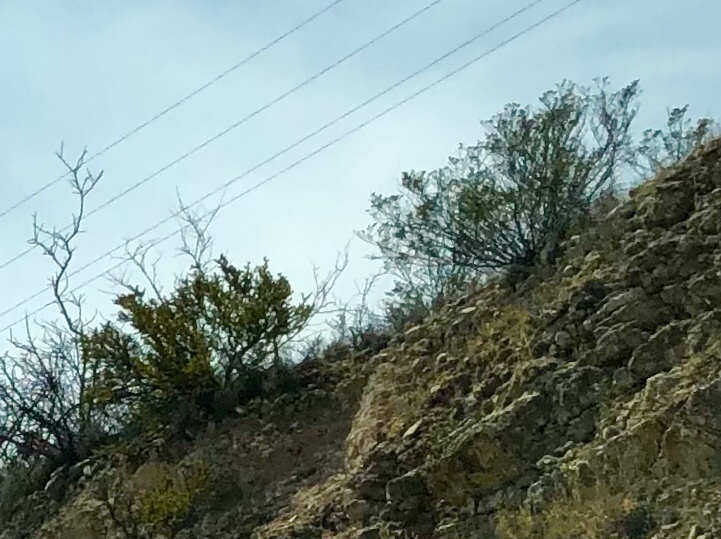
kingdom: Plantae
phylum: Tracheophyta
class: Magnoliopsida
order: Zygophyllales
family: Zygophyllaceae
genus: Larrea
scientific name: Larrea tridentata
